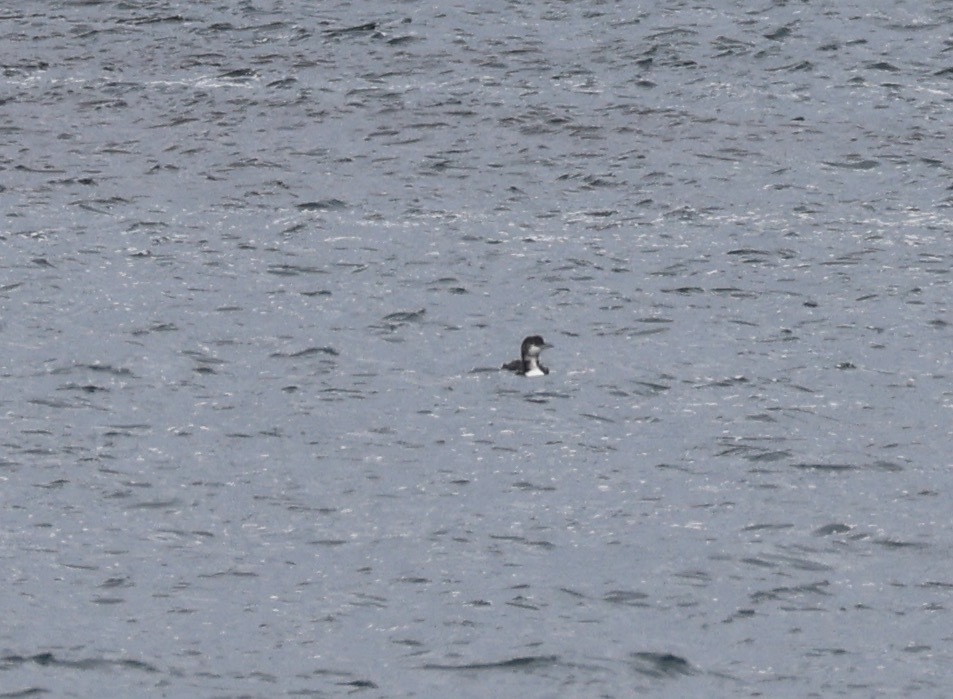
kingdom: Animalia
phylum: Chordata
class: Aves
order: Gaviiformes
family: Gaviidae
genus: Gavia
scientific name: Gavia immer
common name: Common loon
